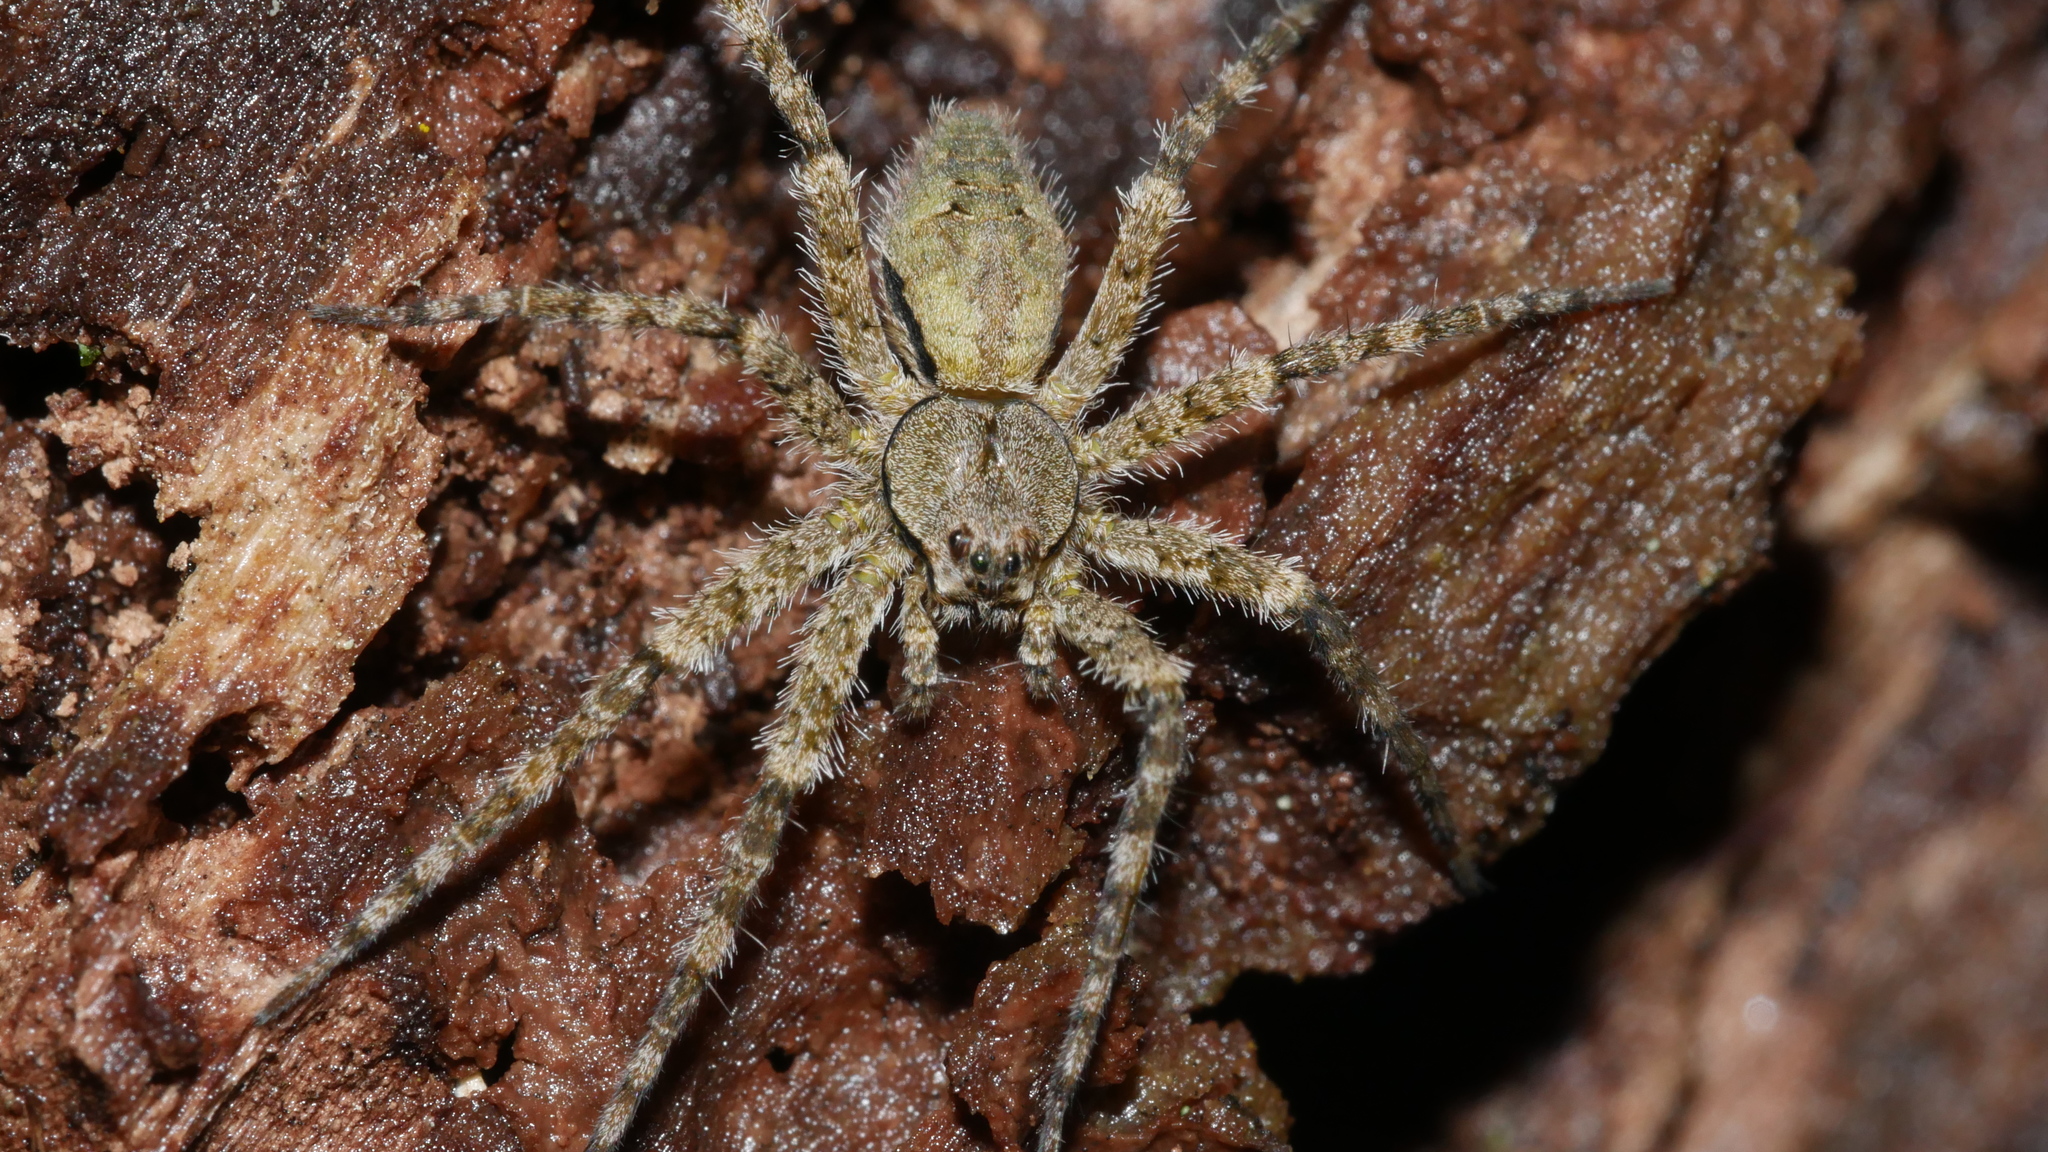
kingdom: Animalia
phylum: Arthropoda
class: Arachnida
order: Araneae
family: Pisauridae
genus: Dolomedes
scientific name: Dolomedes albineus
